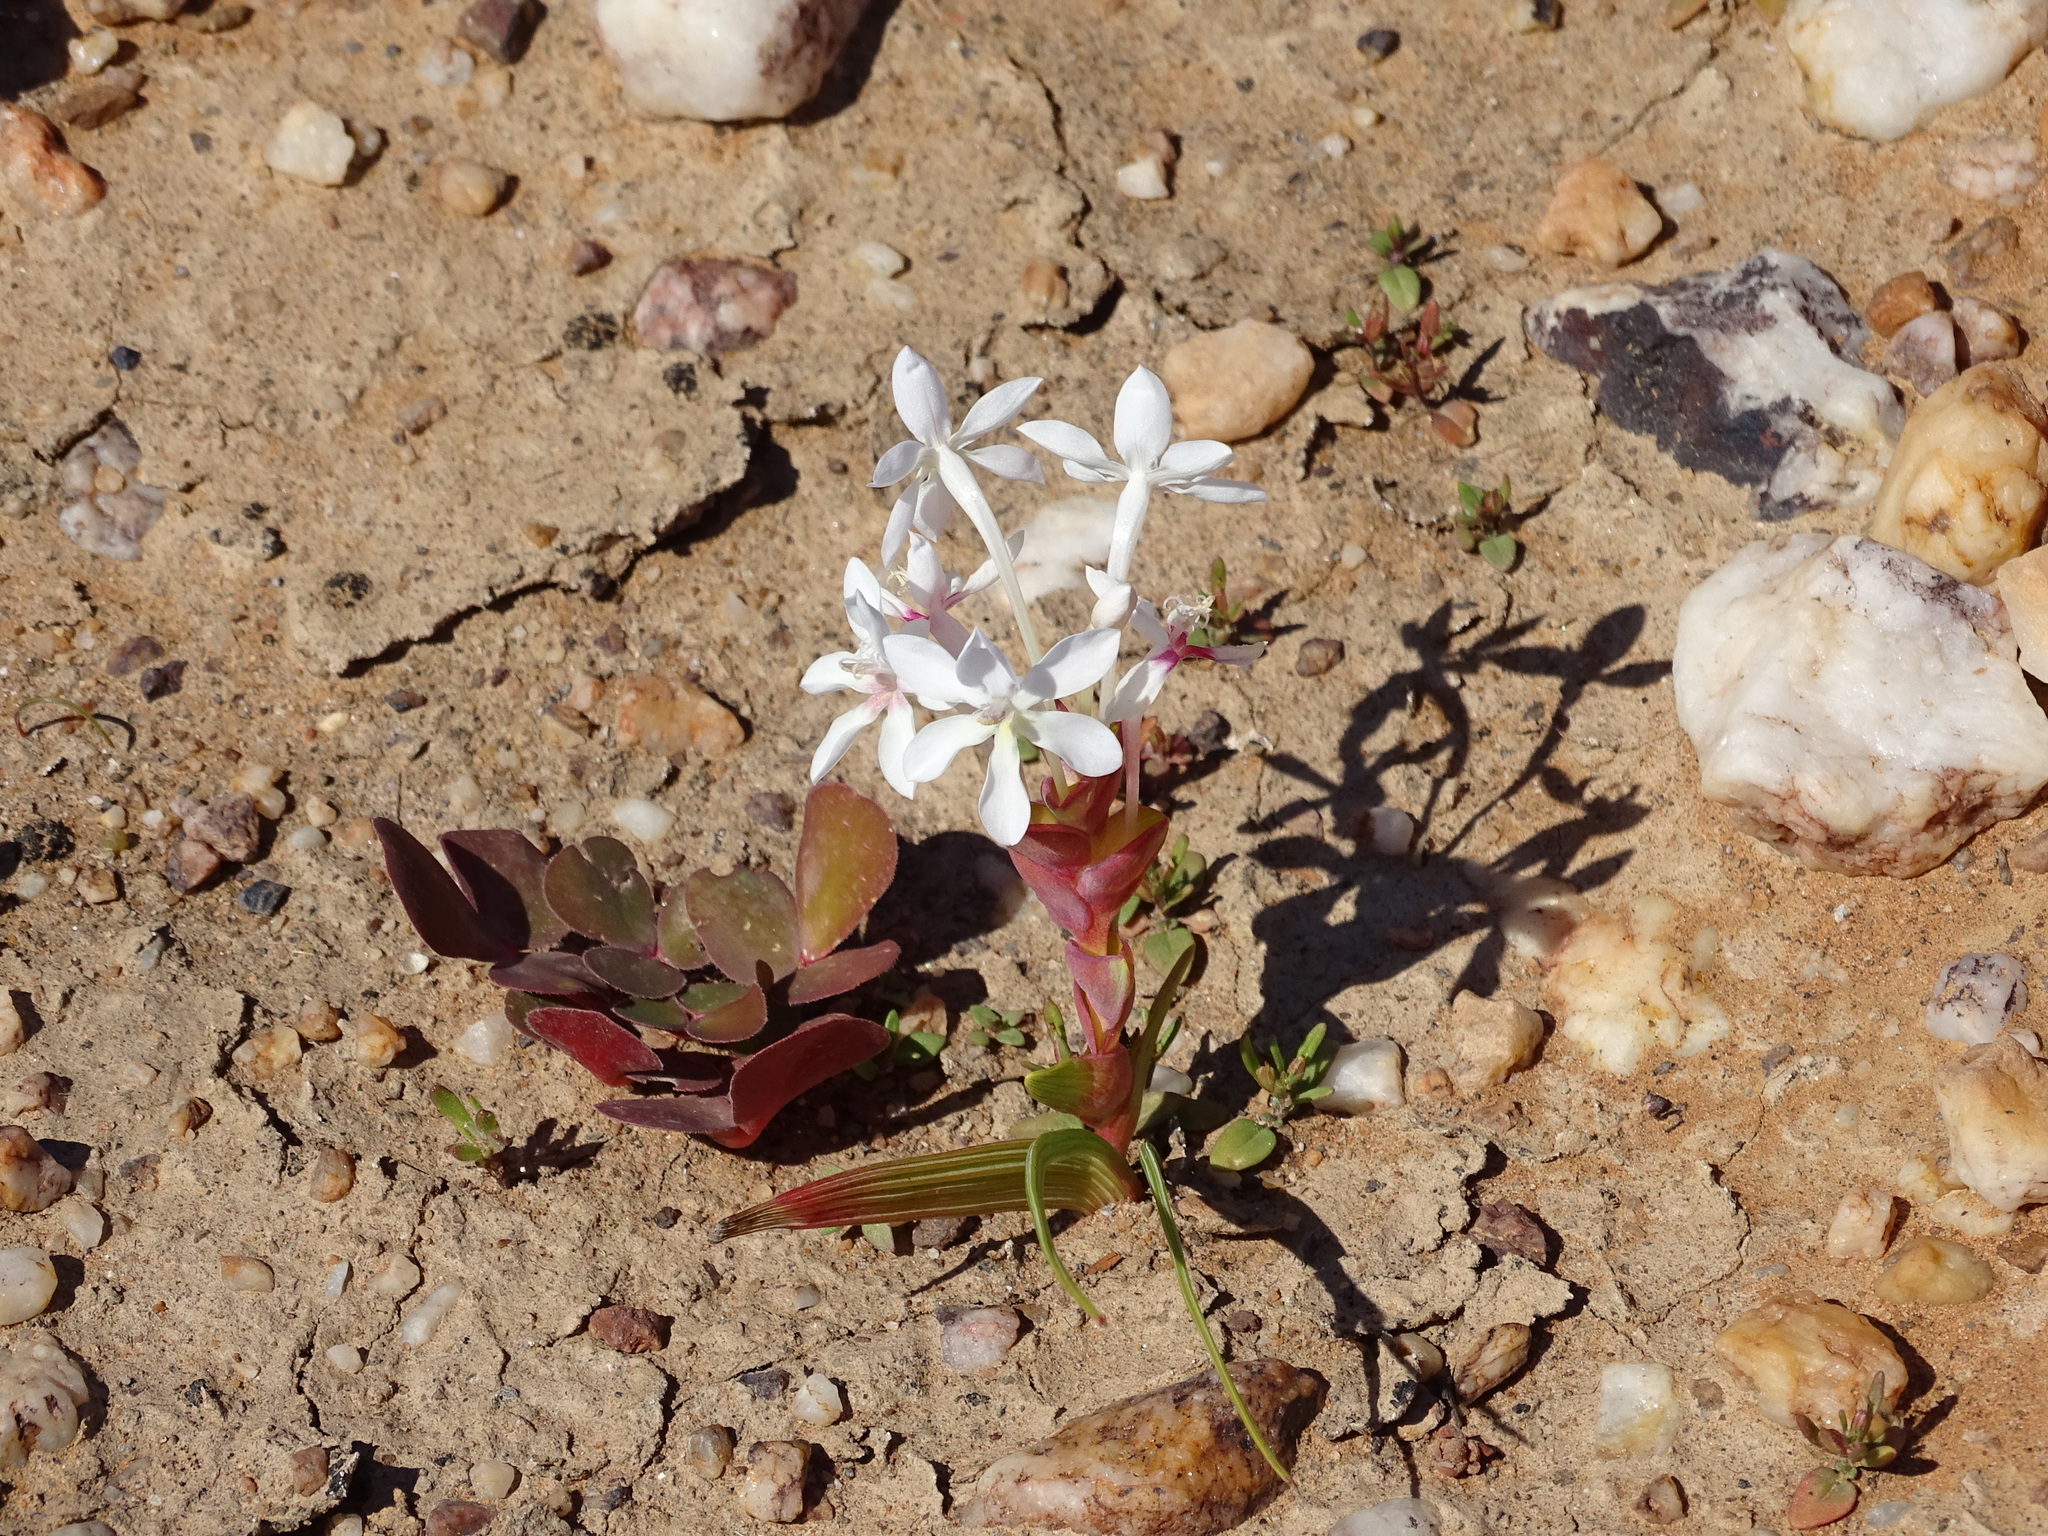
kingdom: Plantae
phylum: Tracheophyta
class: Liliopsida
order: Asparagales
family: Iridaceae
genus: Lapeirousia
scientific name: Lapeirousia pyramidalis
